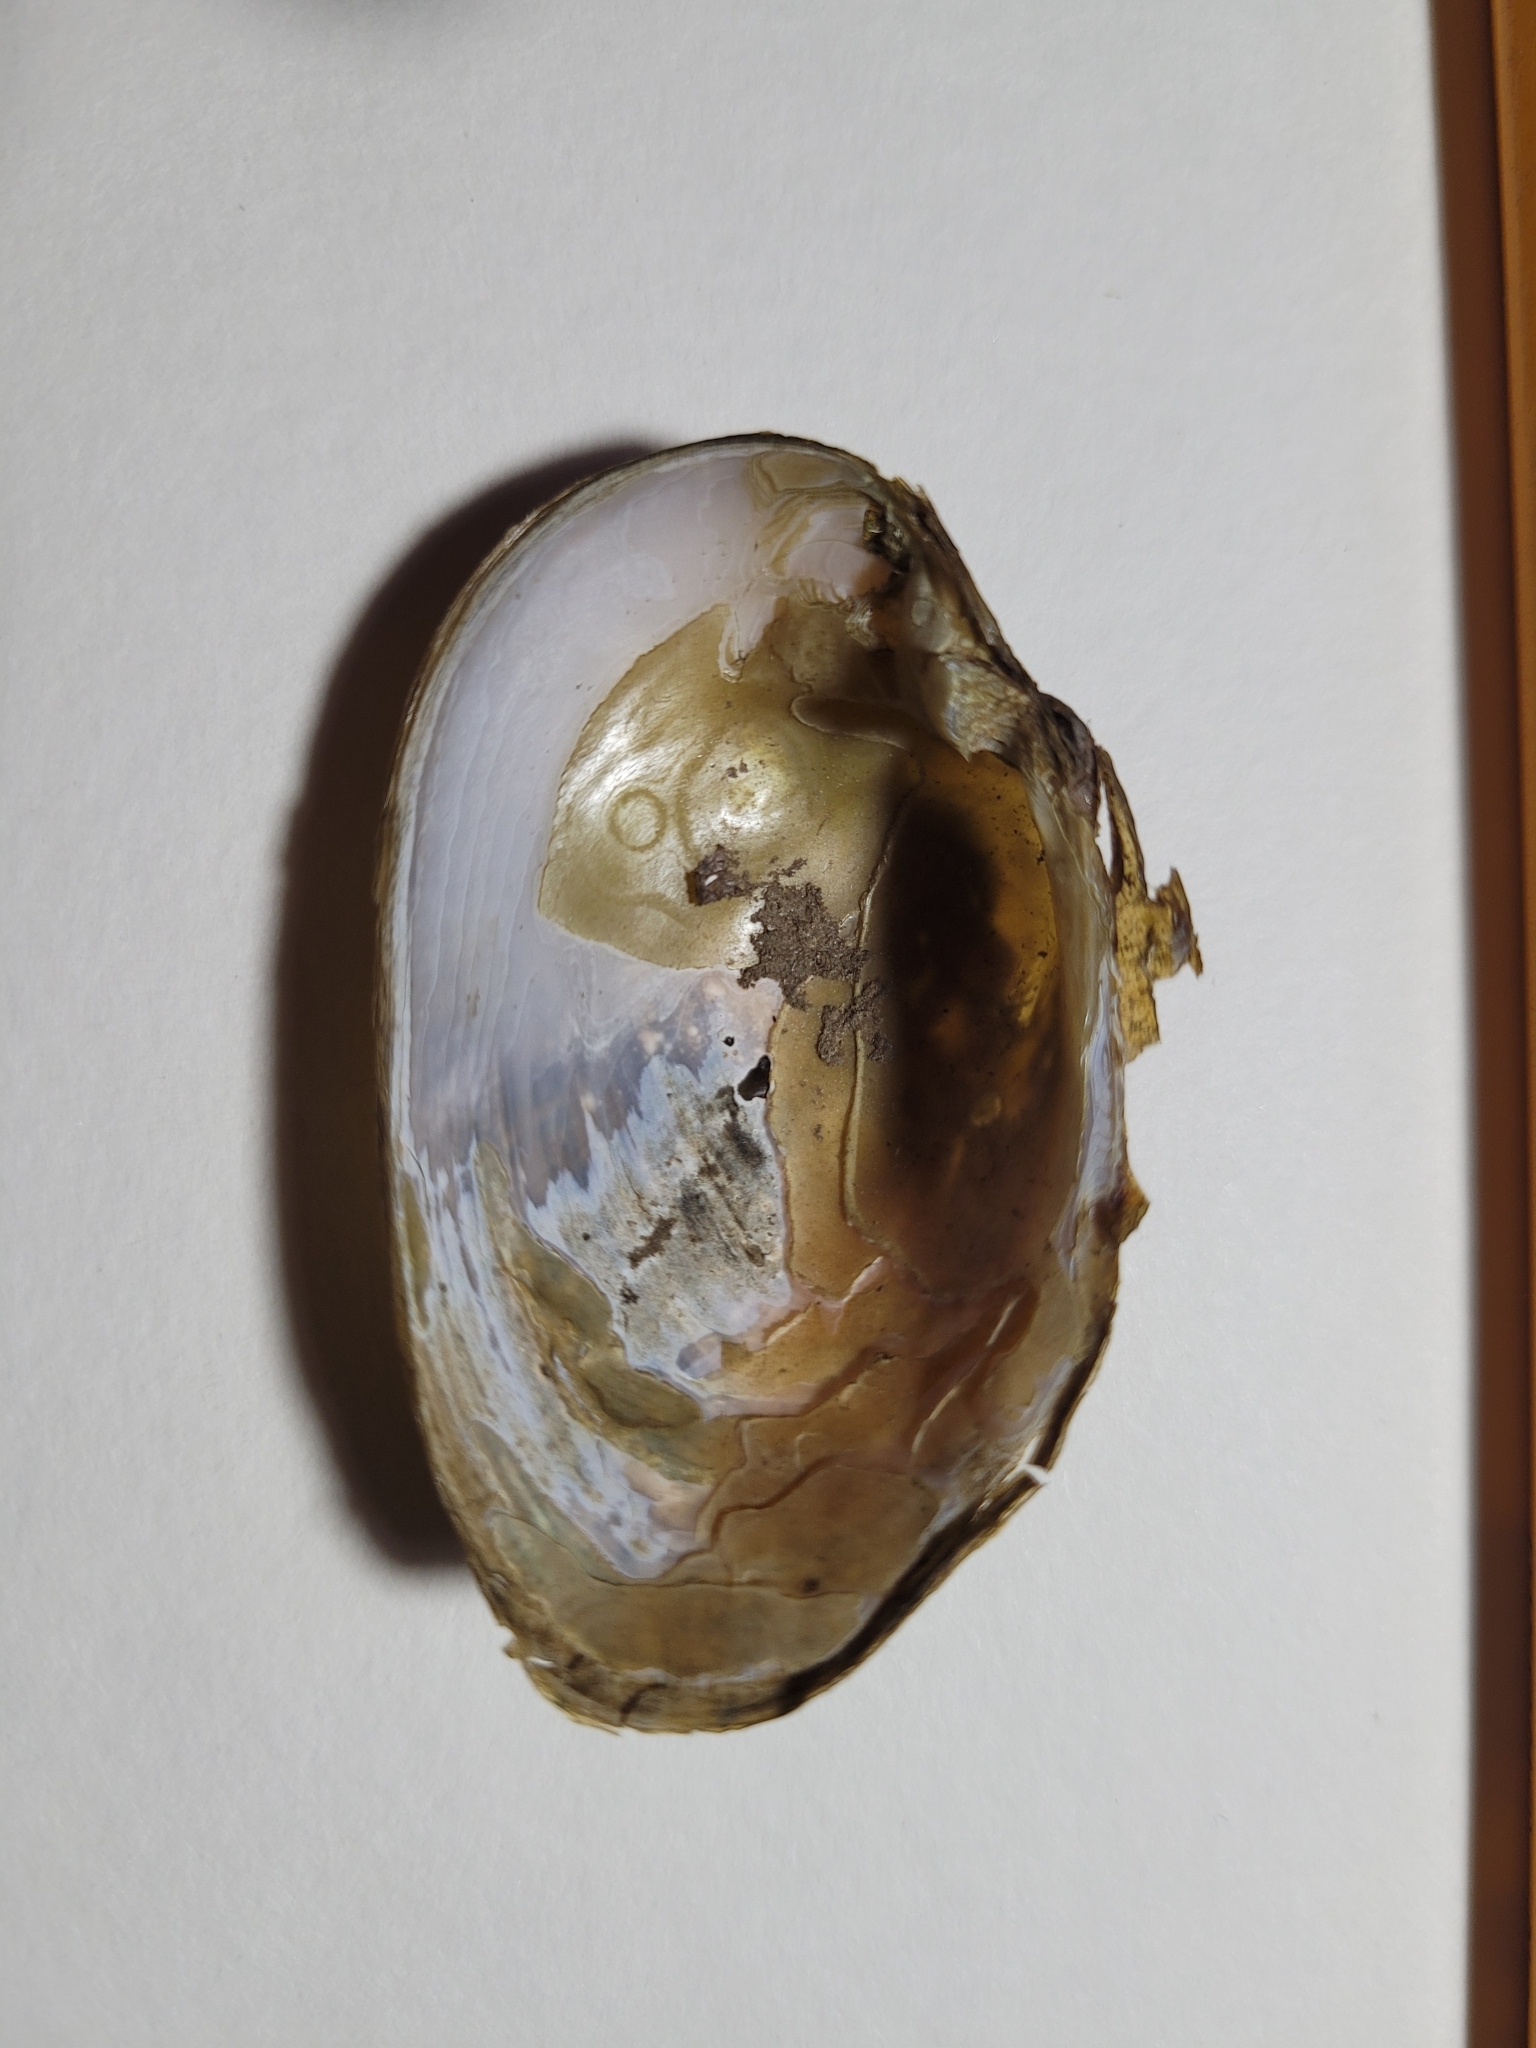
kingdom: Animalia
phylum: Mollusca
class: Bivalvia
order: Unionida
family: Unionidae
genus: Alasmidonta
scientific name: Alasmidonta undulata
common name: Triangle floater
